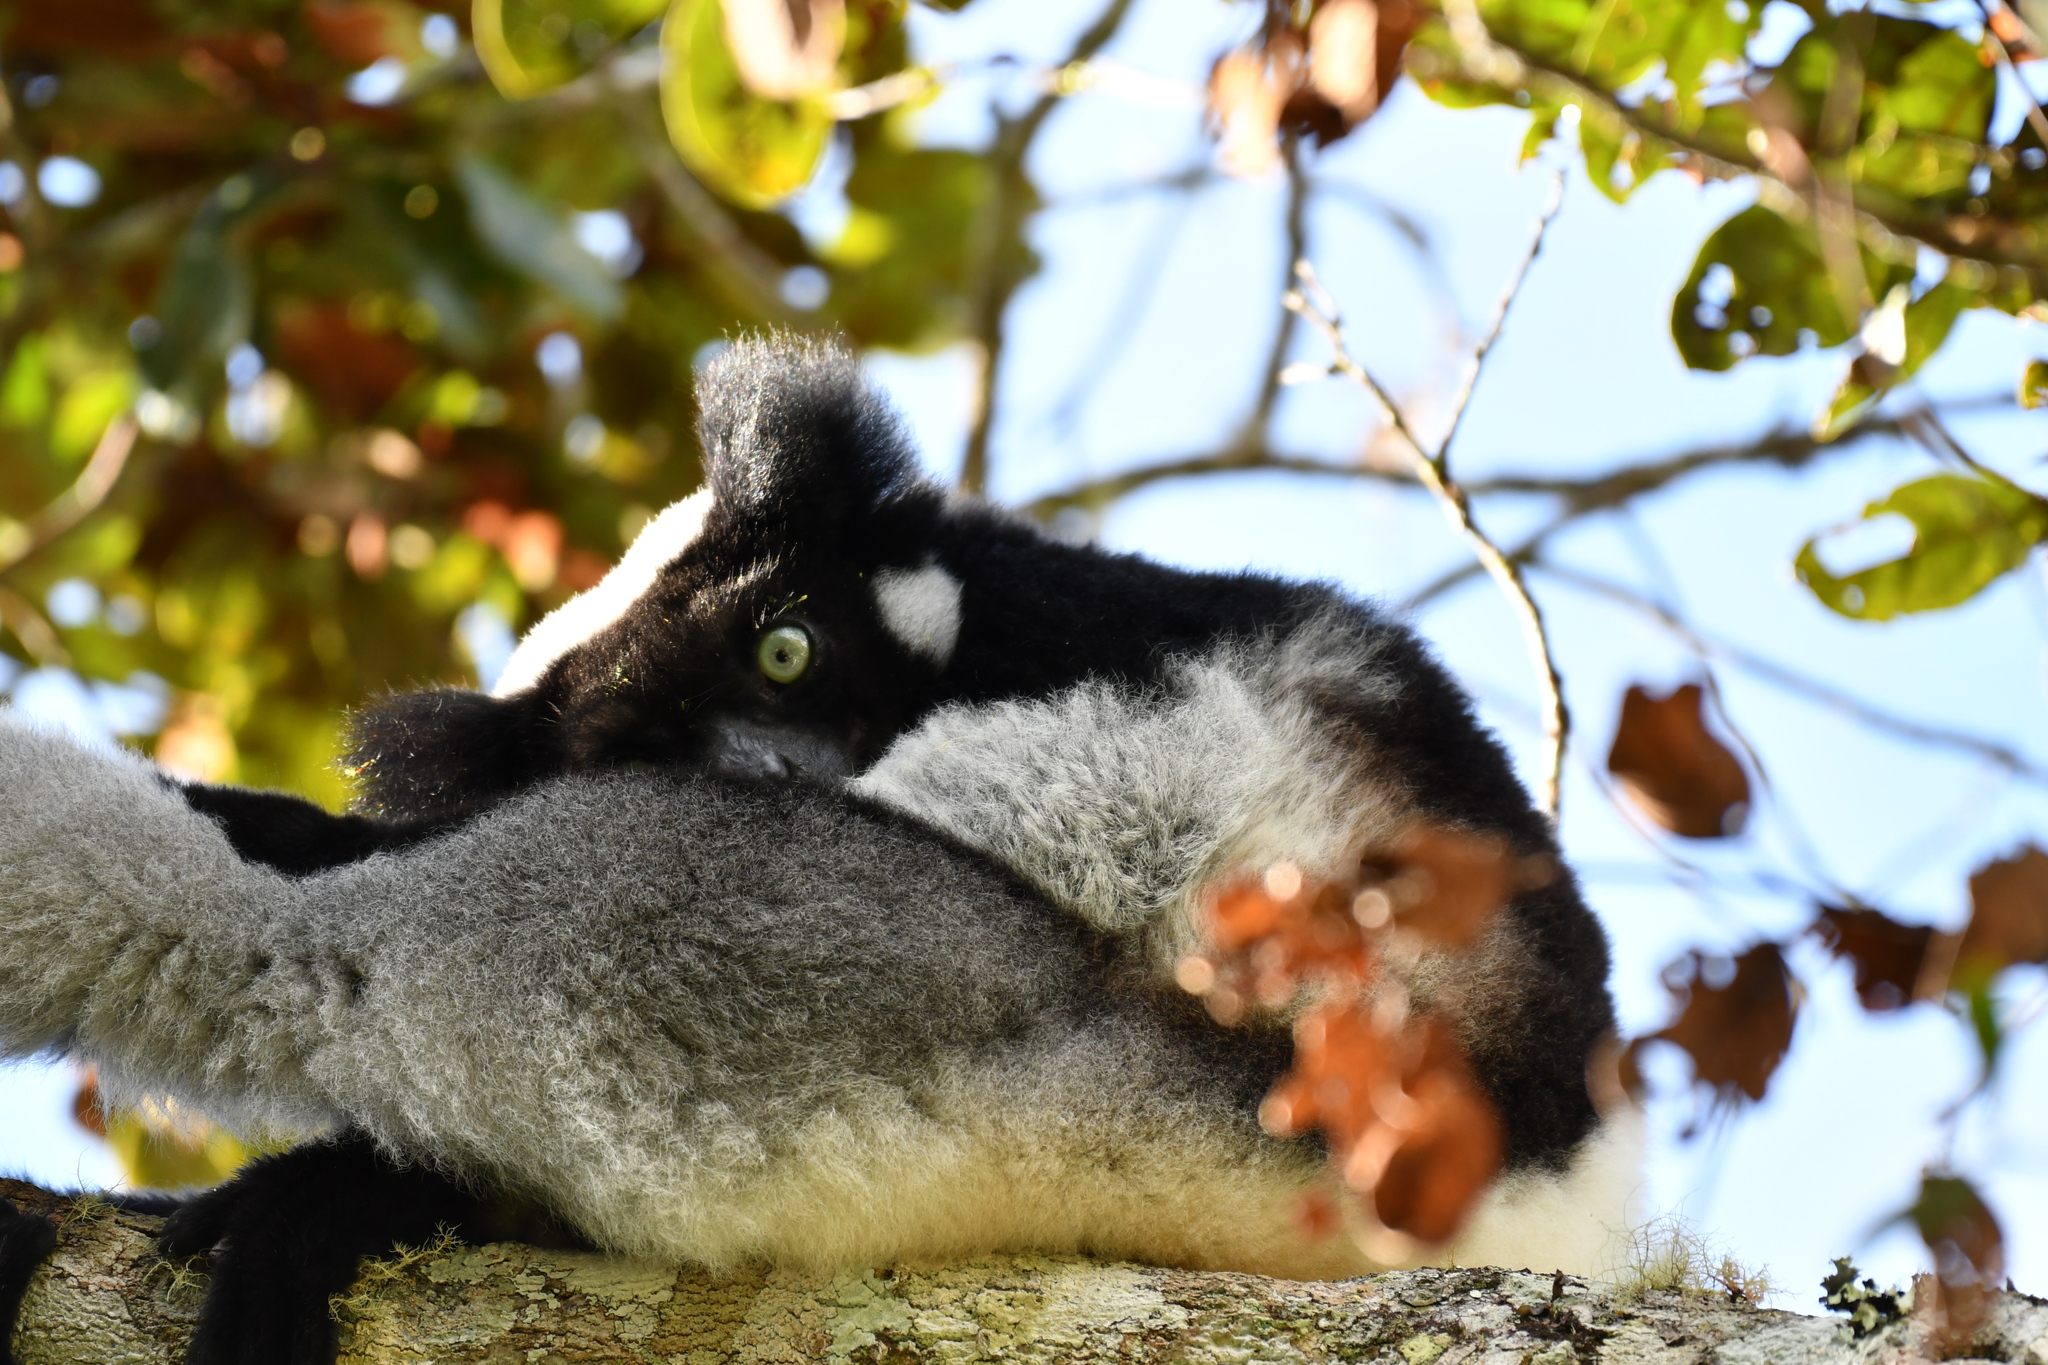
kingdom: Animalia
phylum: Chordata
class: Mammalia
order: Primates
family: Indriidae
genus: Indri
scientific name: Indri indri
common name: Indri
